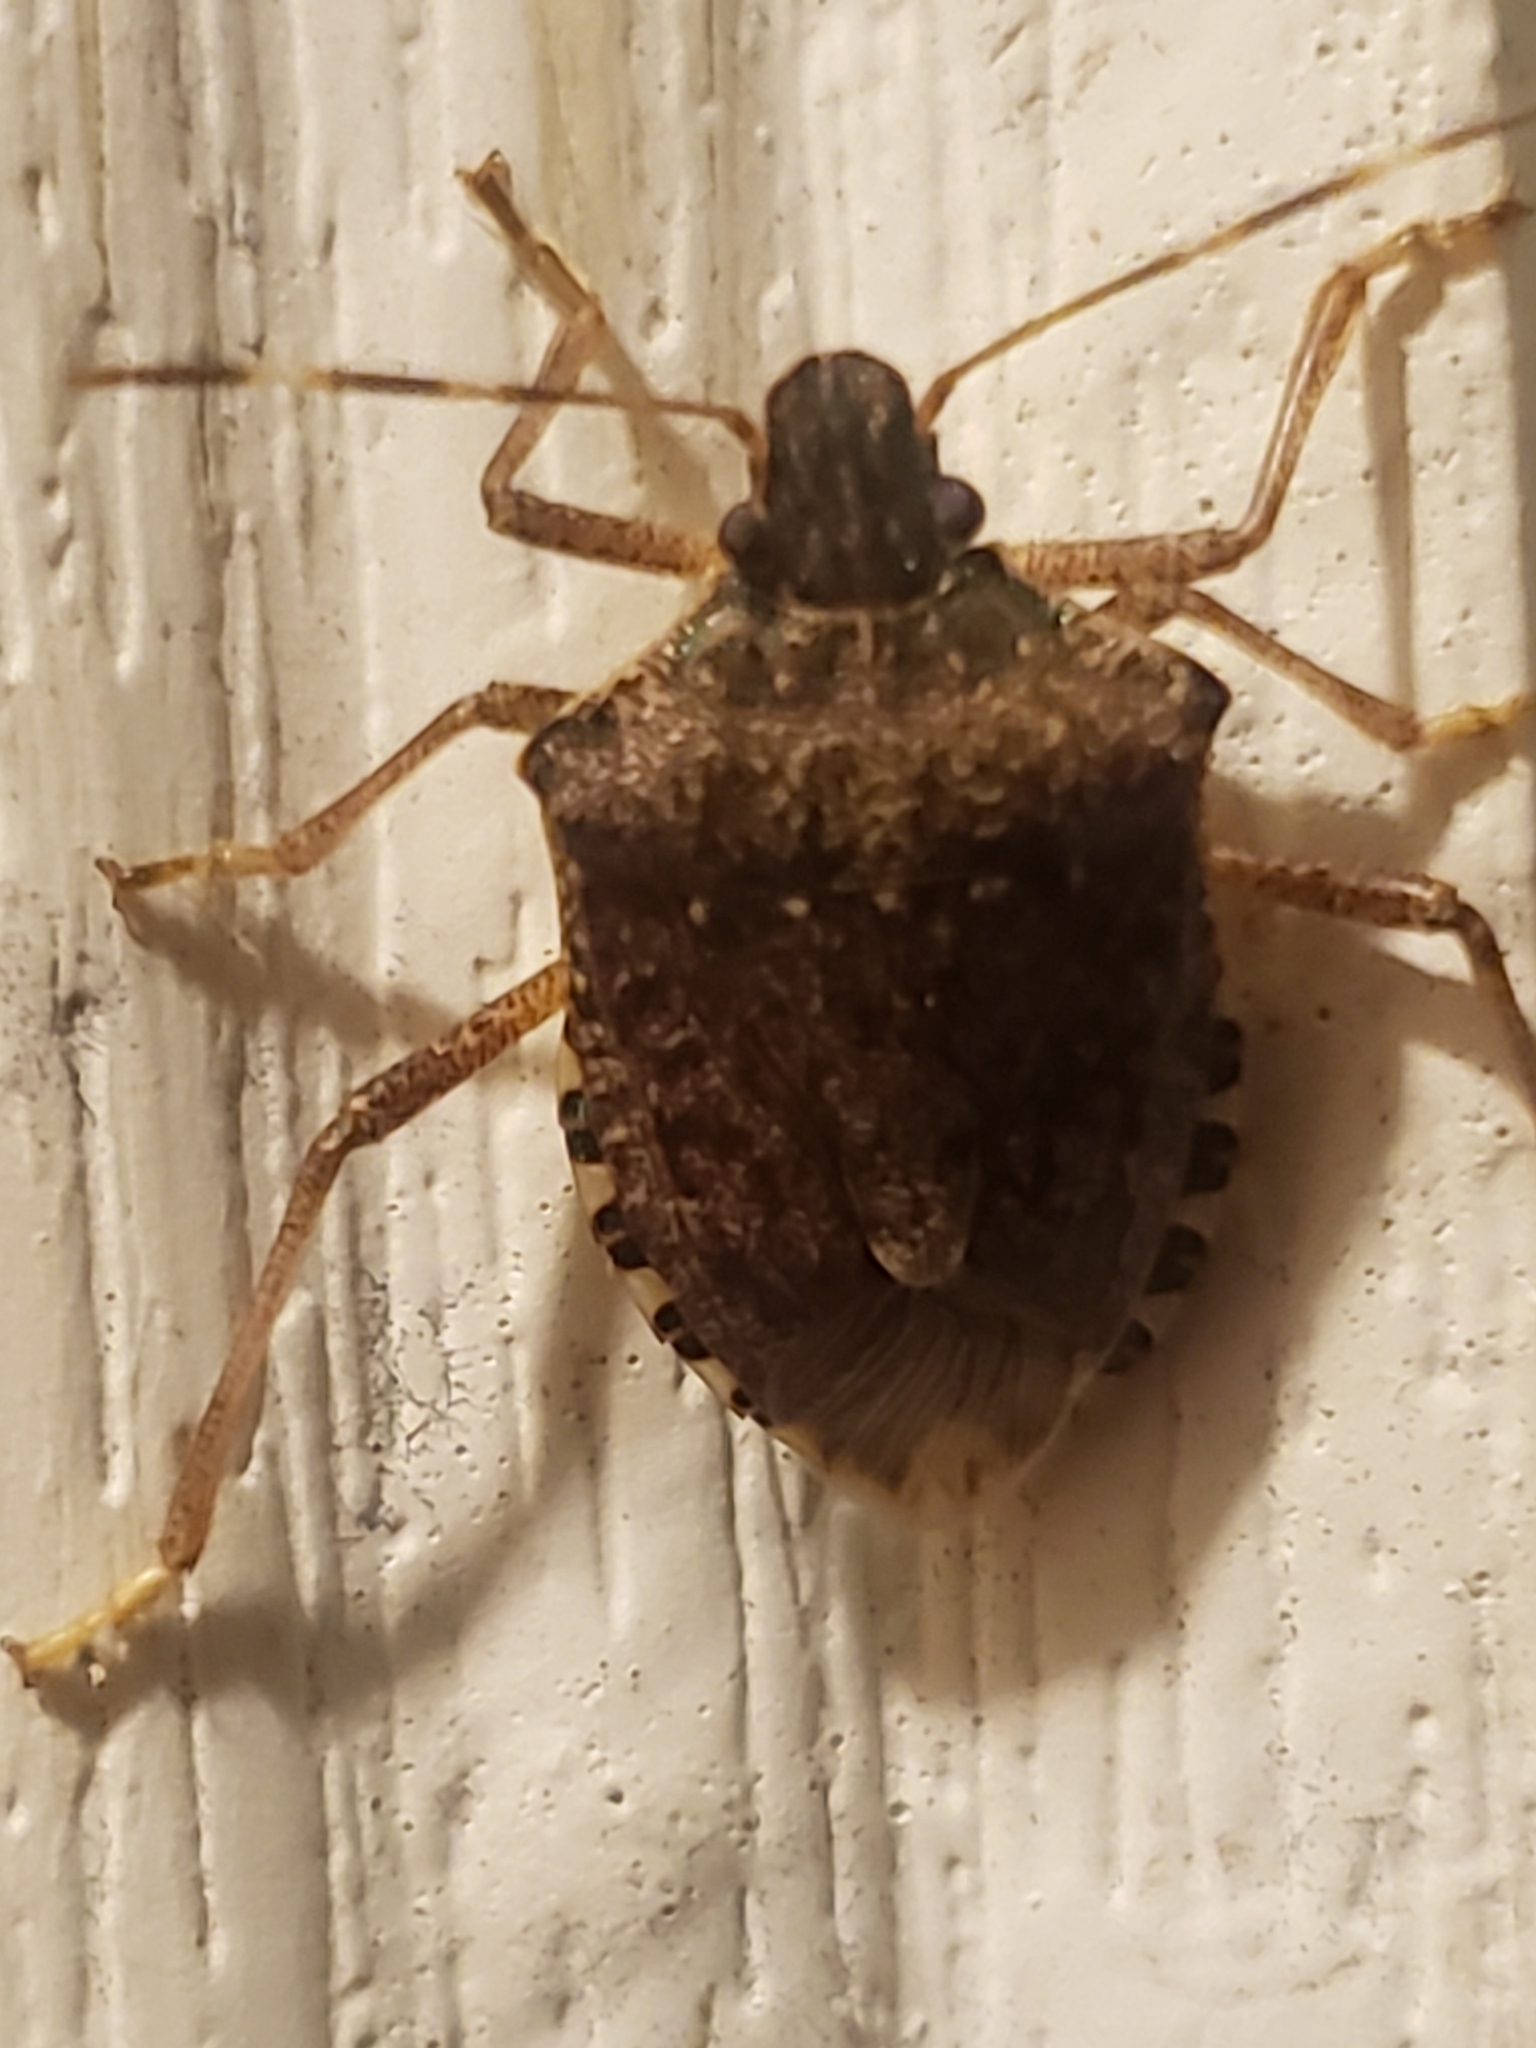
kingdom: Animalia
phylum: Arthropoda
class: Insecta
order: Hemiptera
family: Pentatomidae
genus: Halyomorpha
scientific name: Halyomorpha halys
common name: Brown marmorated stink bug
